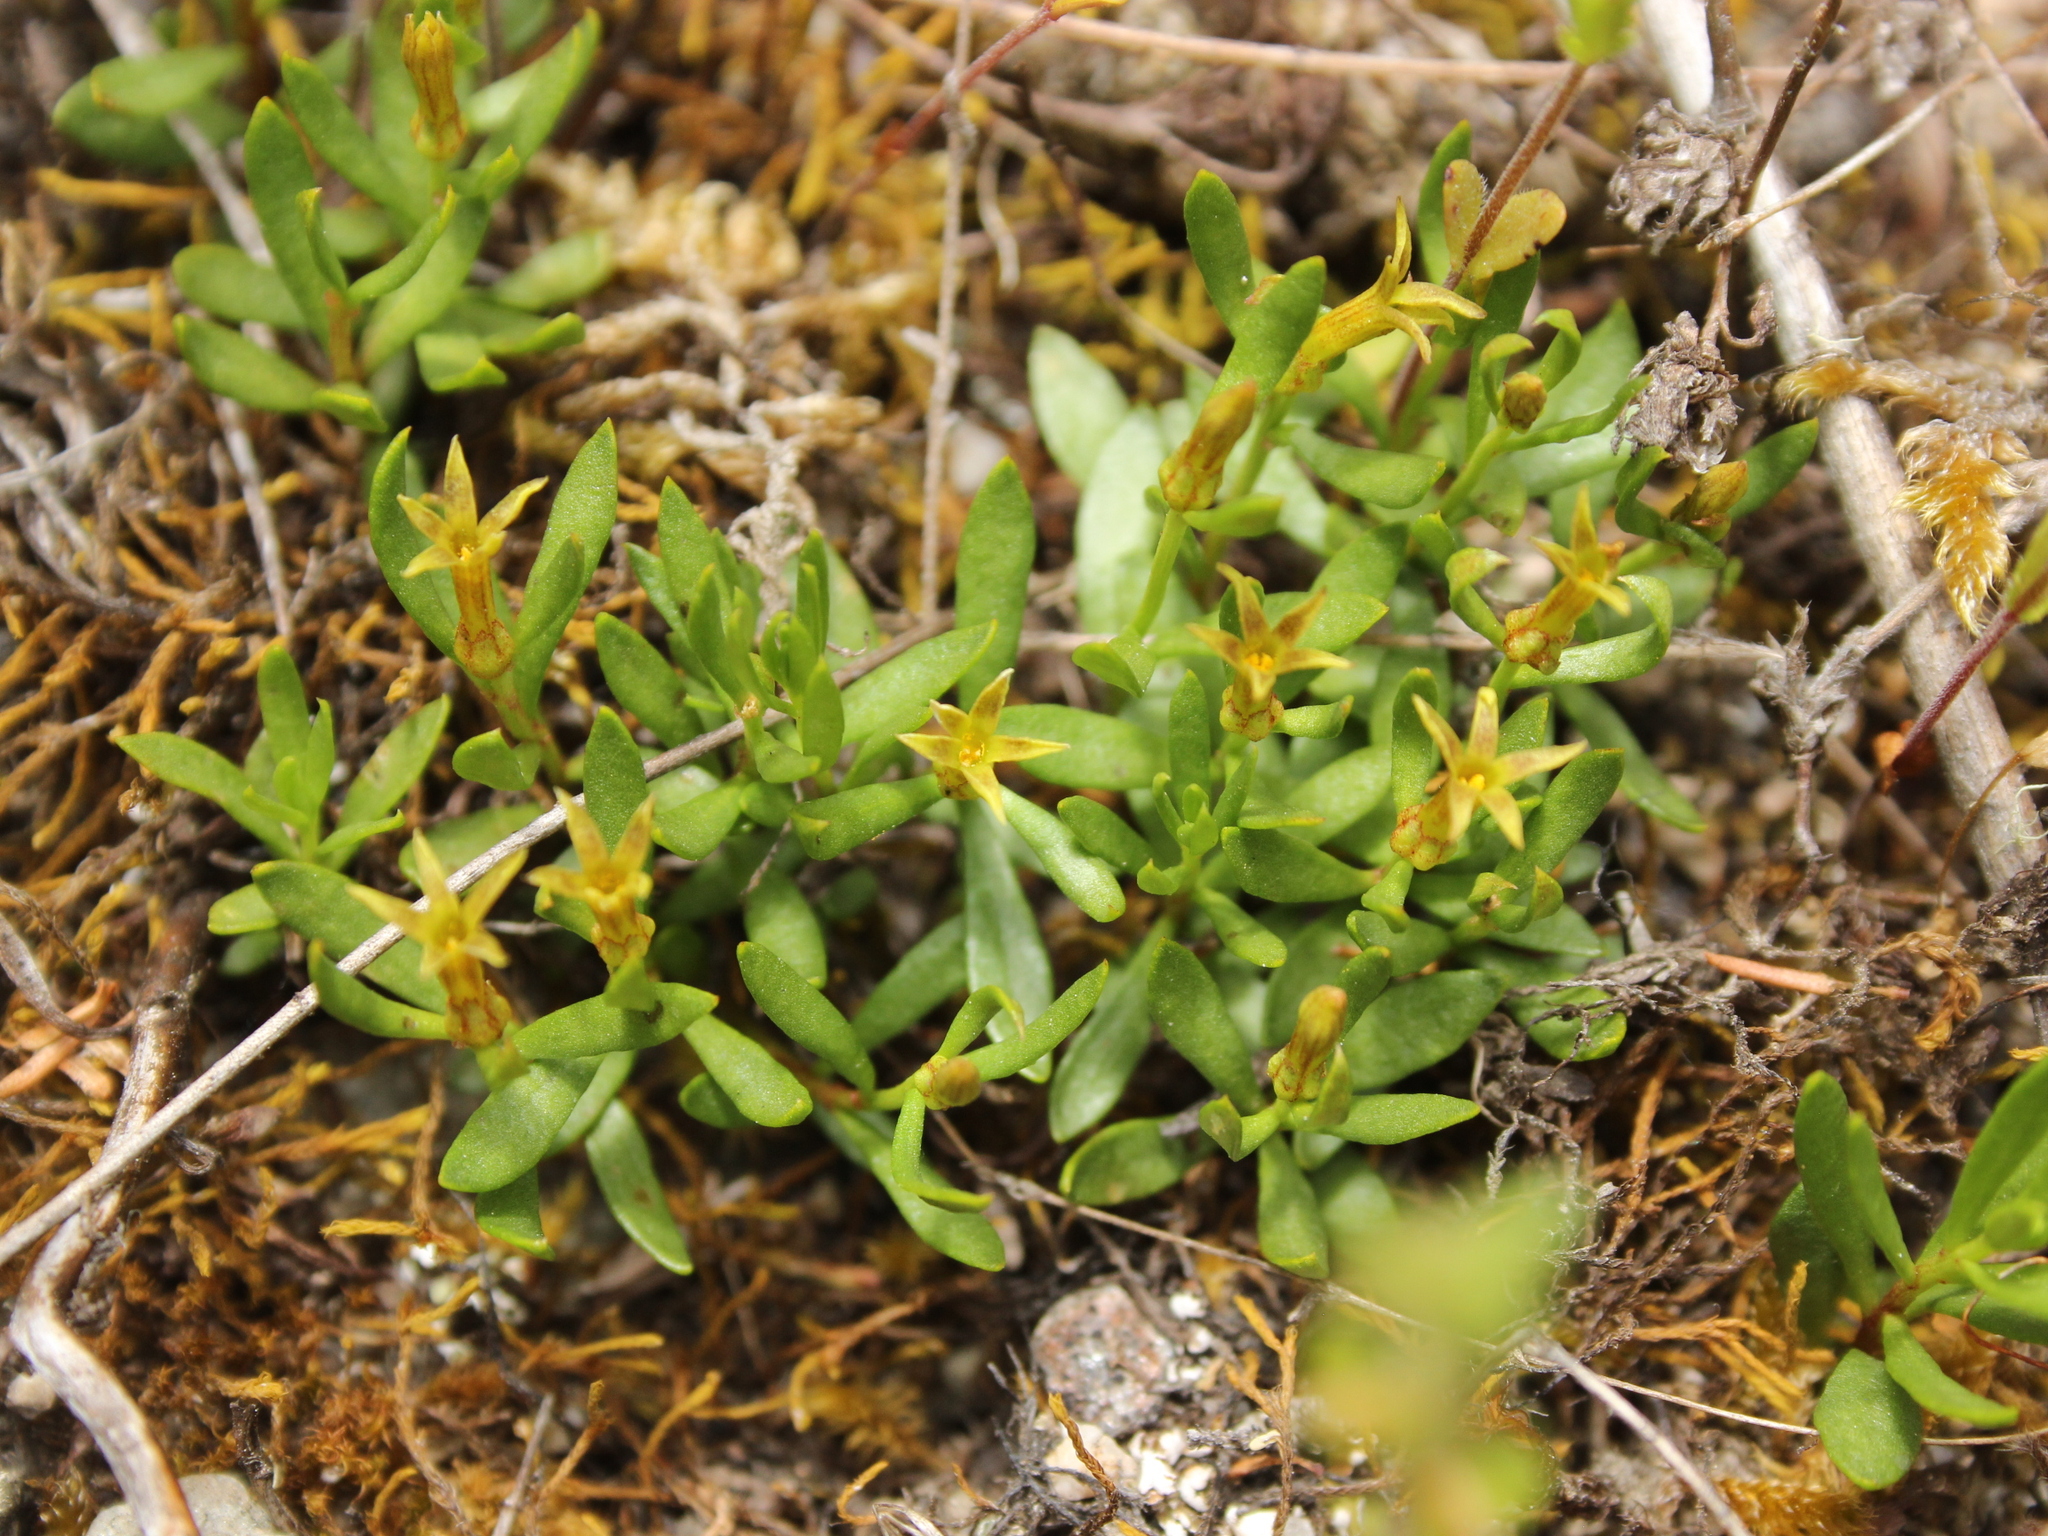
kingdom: Plantae
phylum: Tracheophyta
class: Magnoliopsida
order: Celastrales
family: Celastraceae
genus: Stackhousia
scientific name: Stackhousia minima
